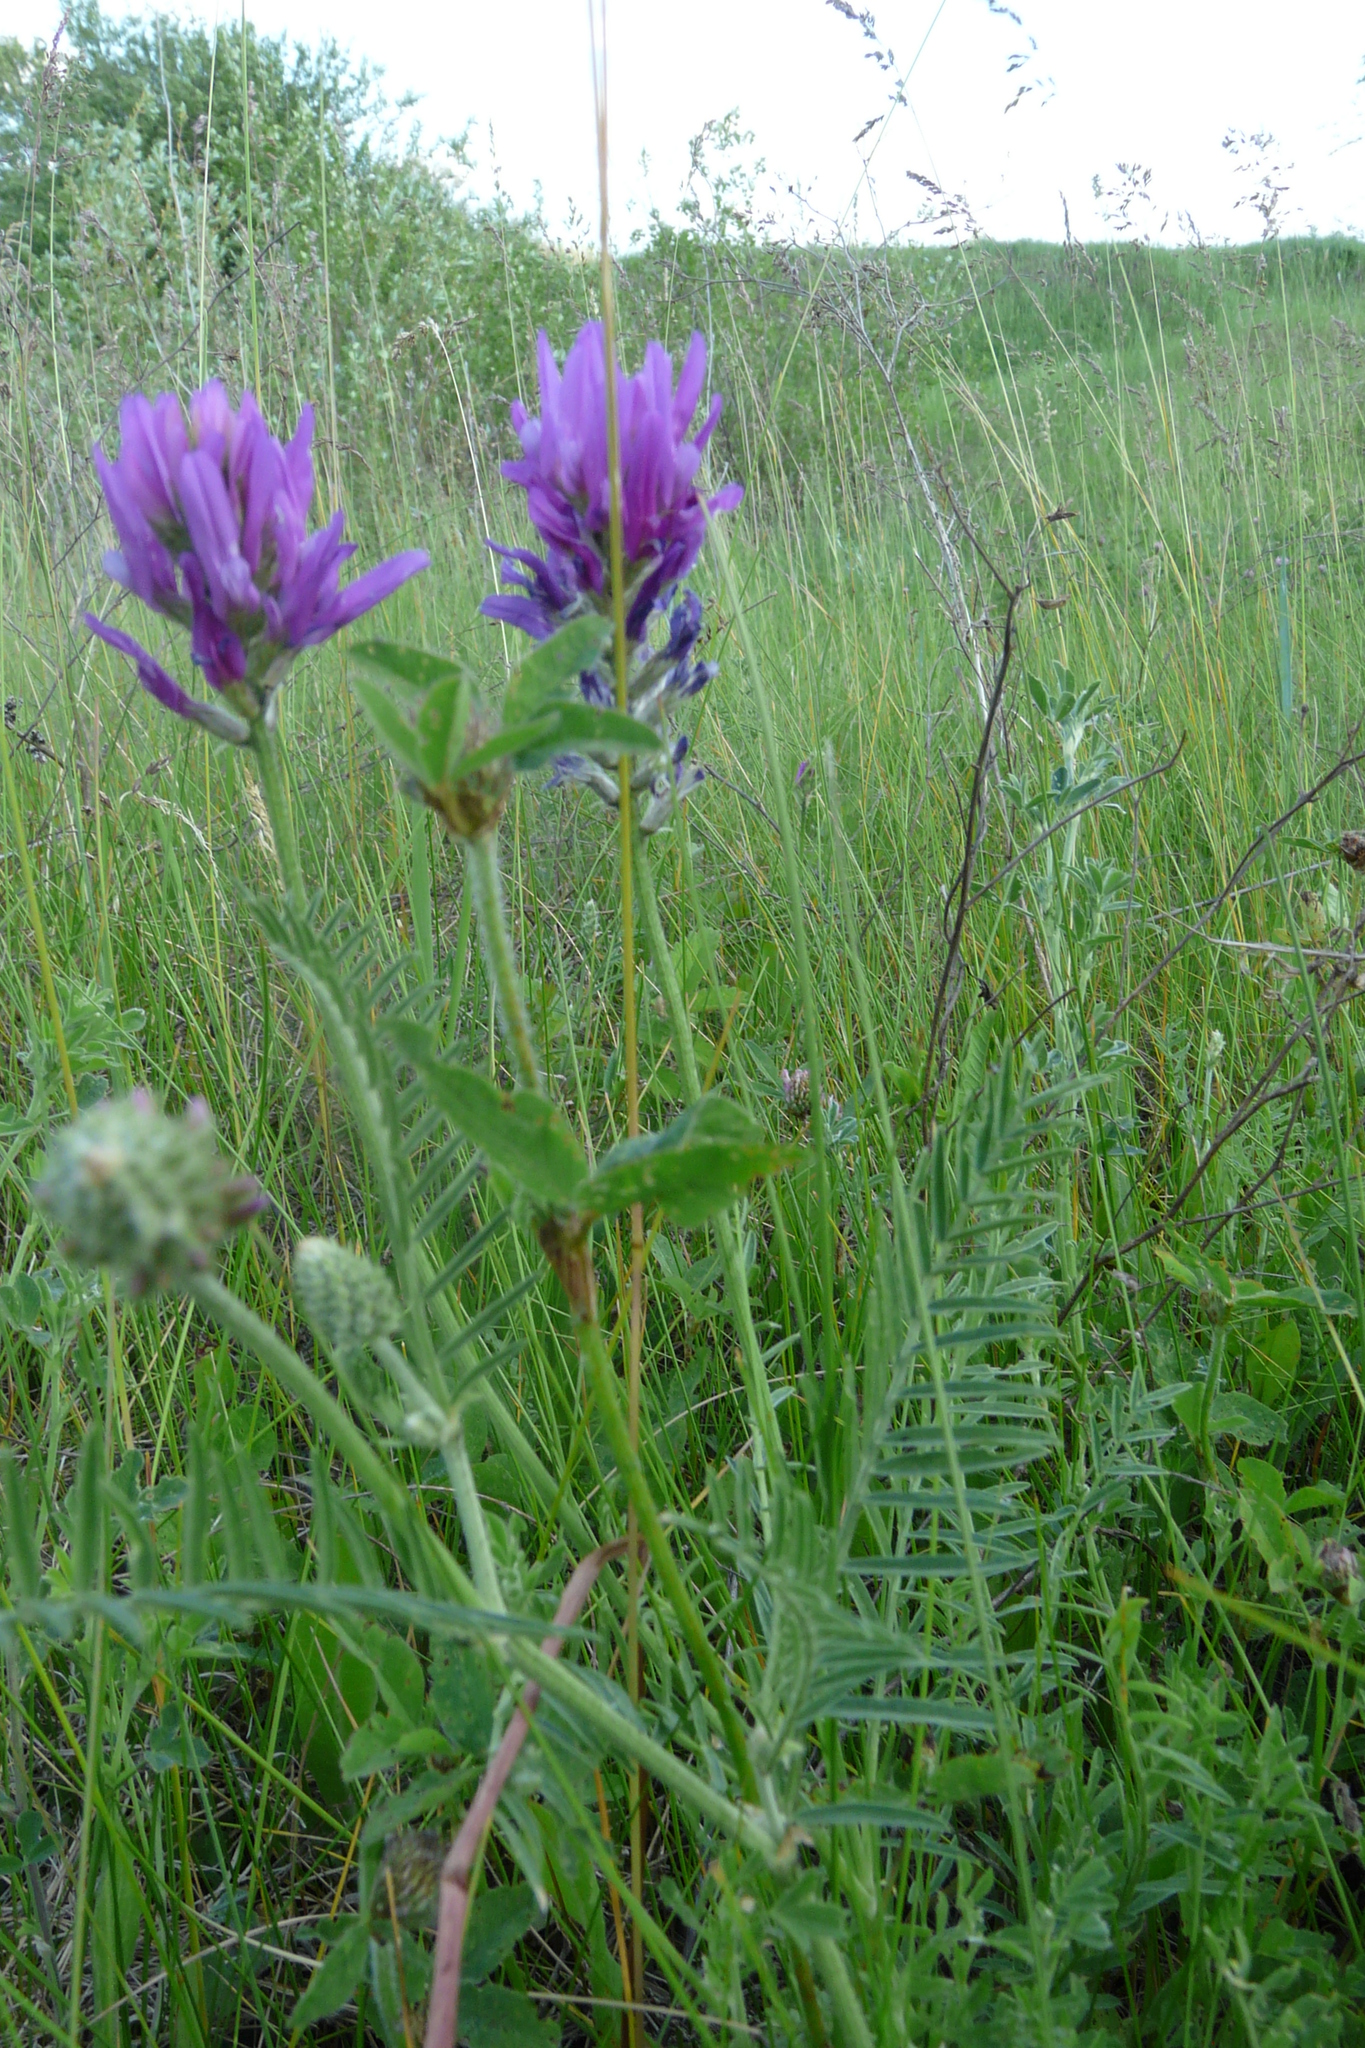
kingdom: Plantae
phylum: Tracheophyta
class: Magnoliopsida
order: Fabales
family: Fabaceae
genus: Astragalus
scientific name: Astragalus onobrychis
